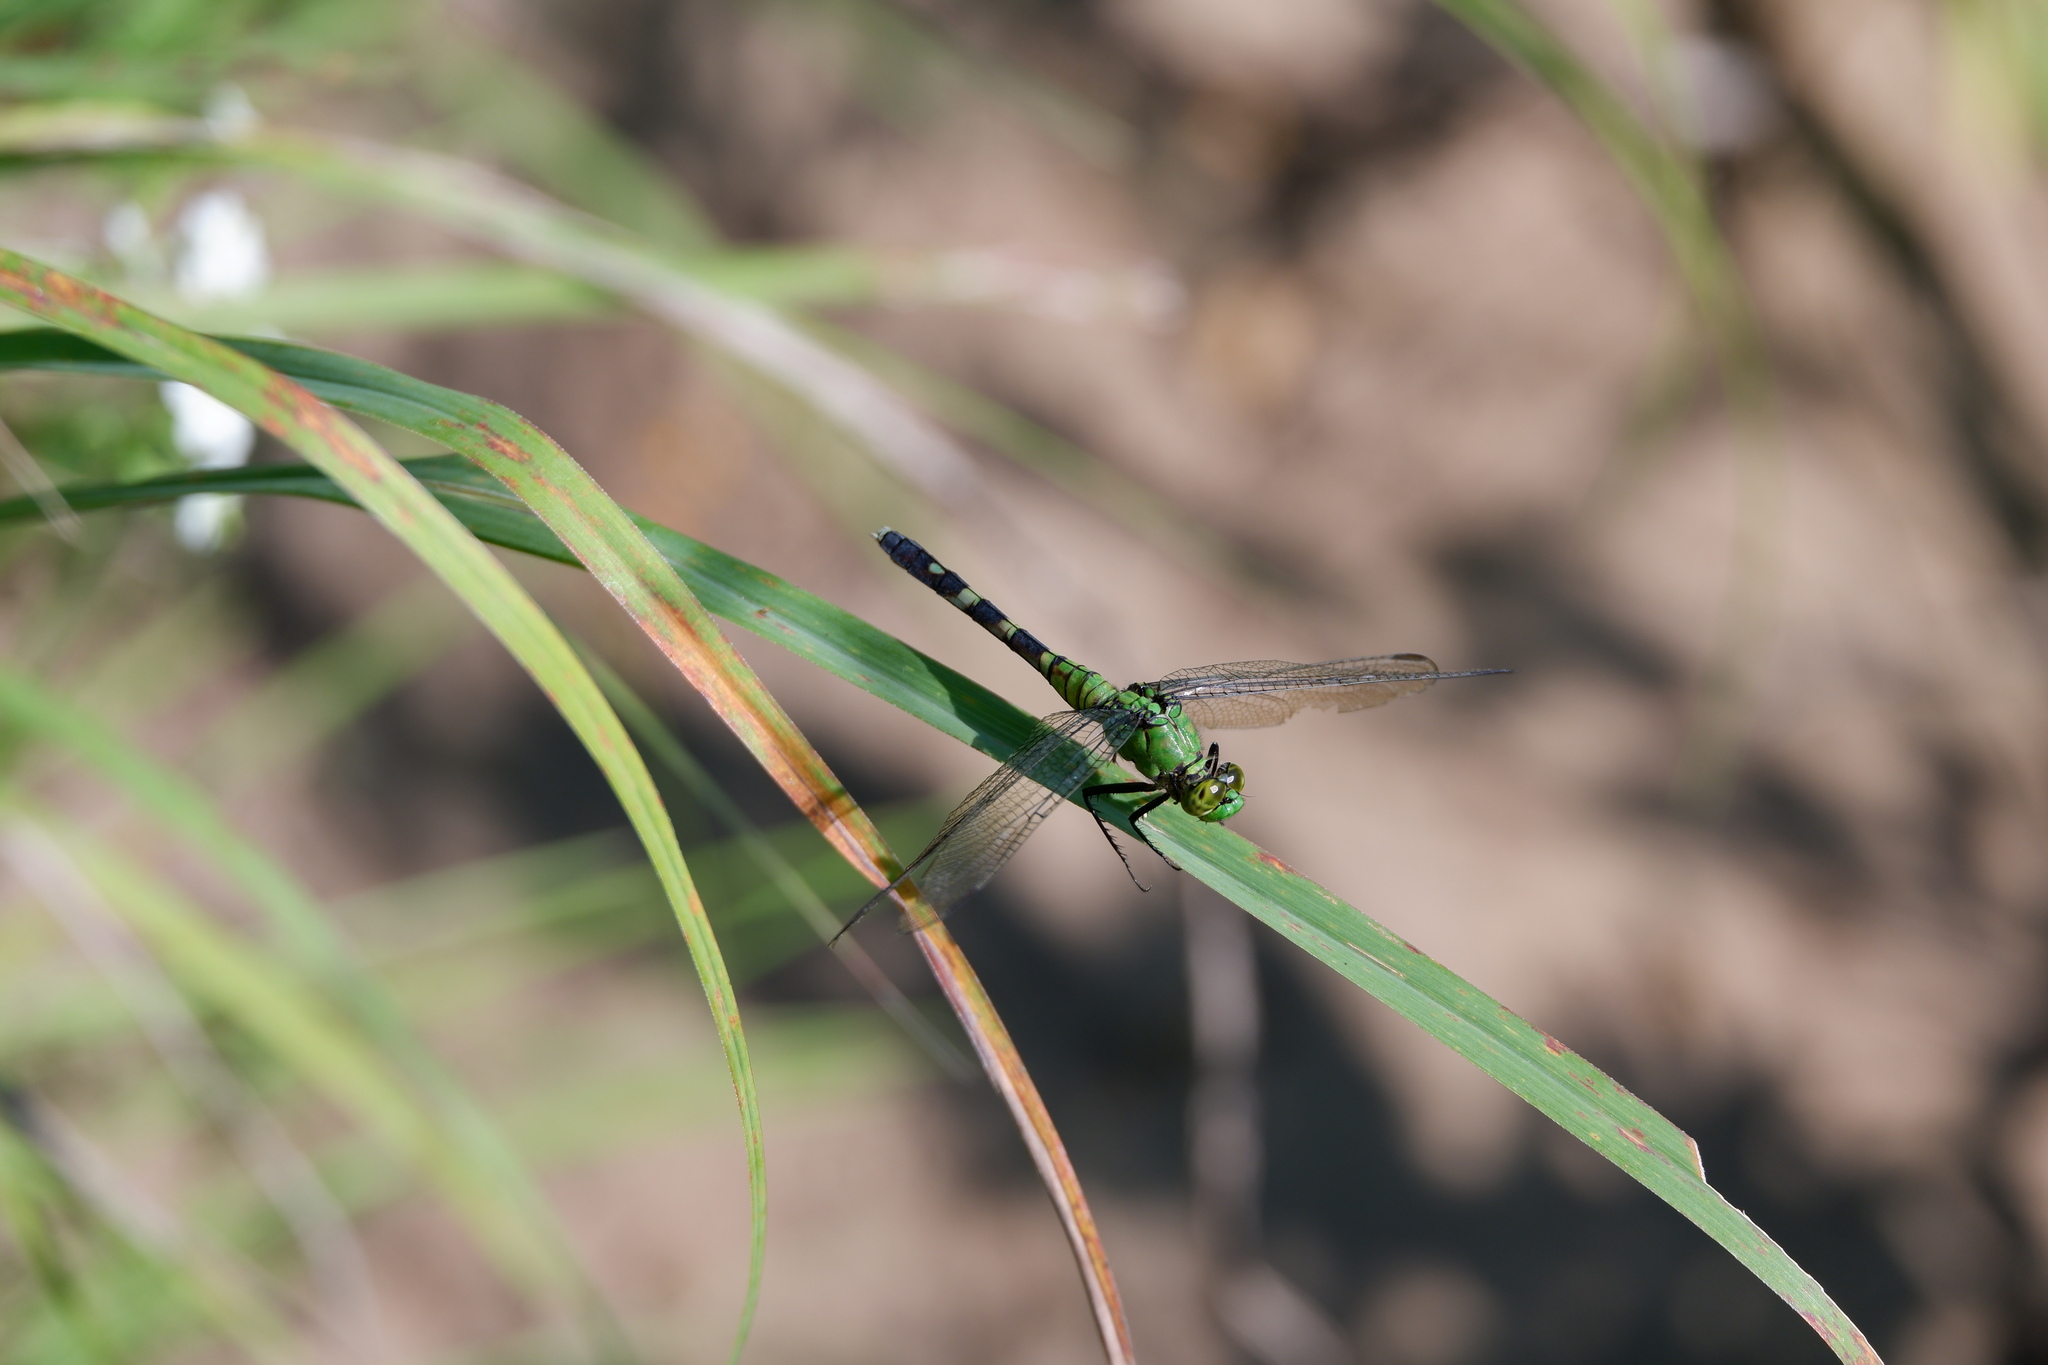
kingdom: Animalia
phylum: Arthropoda
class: Insecta
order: Odonata
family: Libellulidae
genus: Erythemis
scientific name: Erythemis simplicicollis
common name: Eastern pondhawk
